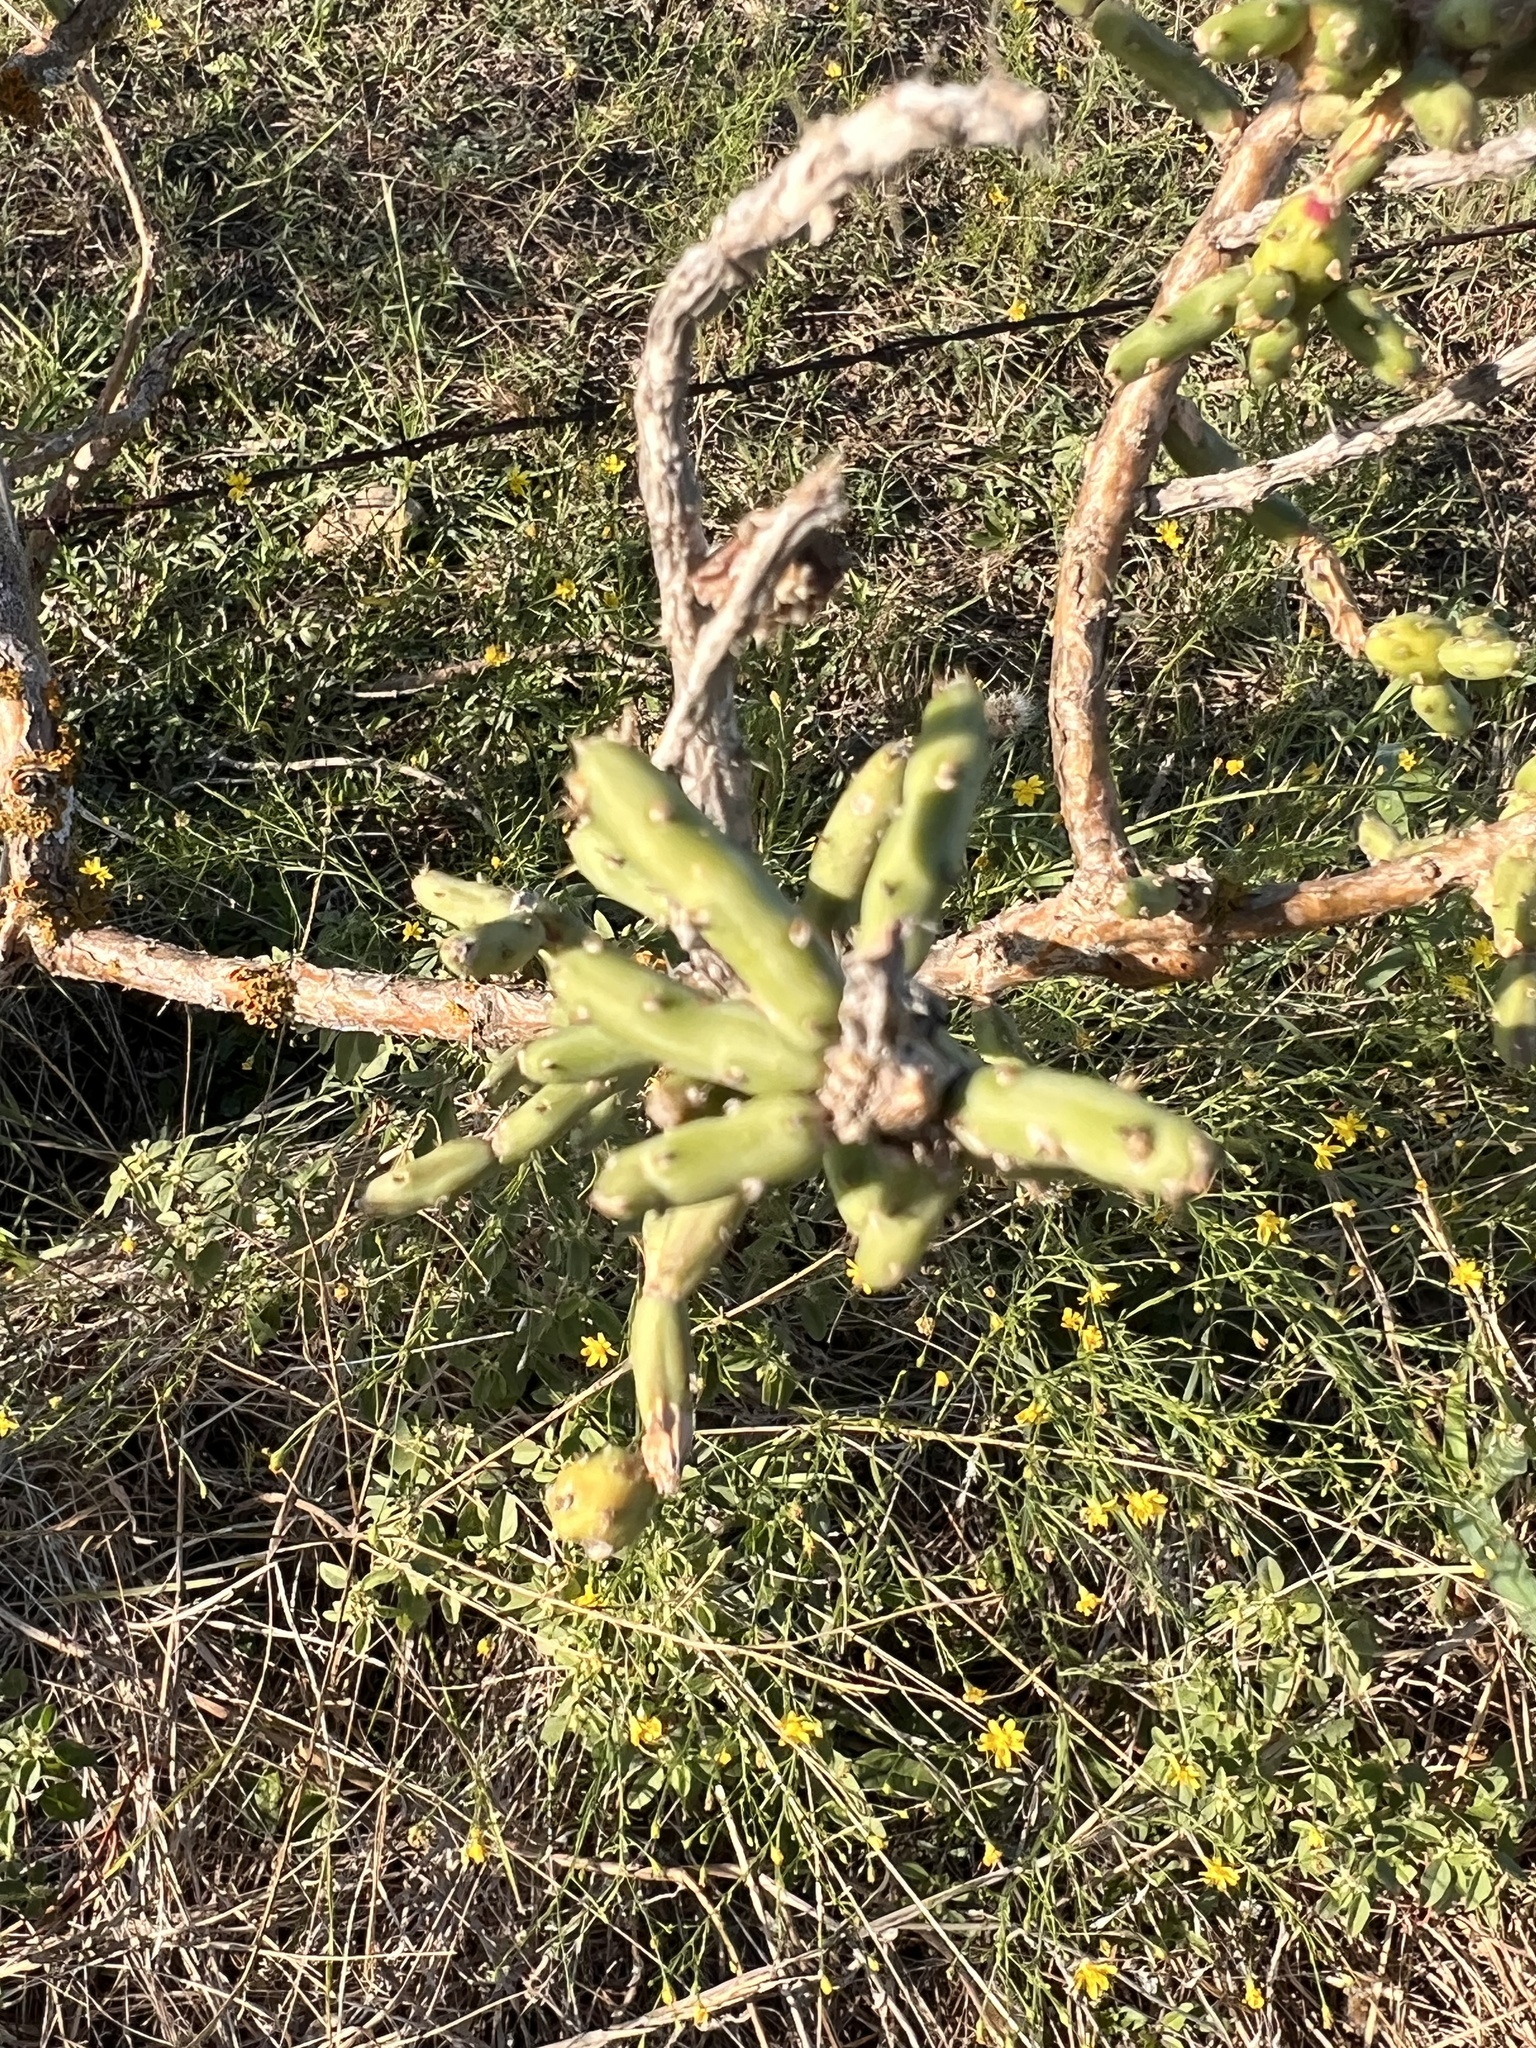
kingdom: Plantae
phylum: Tracheophyta
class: Magnoliopsida
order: Caryophyllales
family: Cactaceae
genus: Cylindropuntia
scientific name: Cylindropuntia leptocaulis
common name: Christmas cactus
